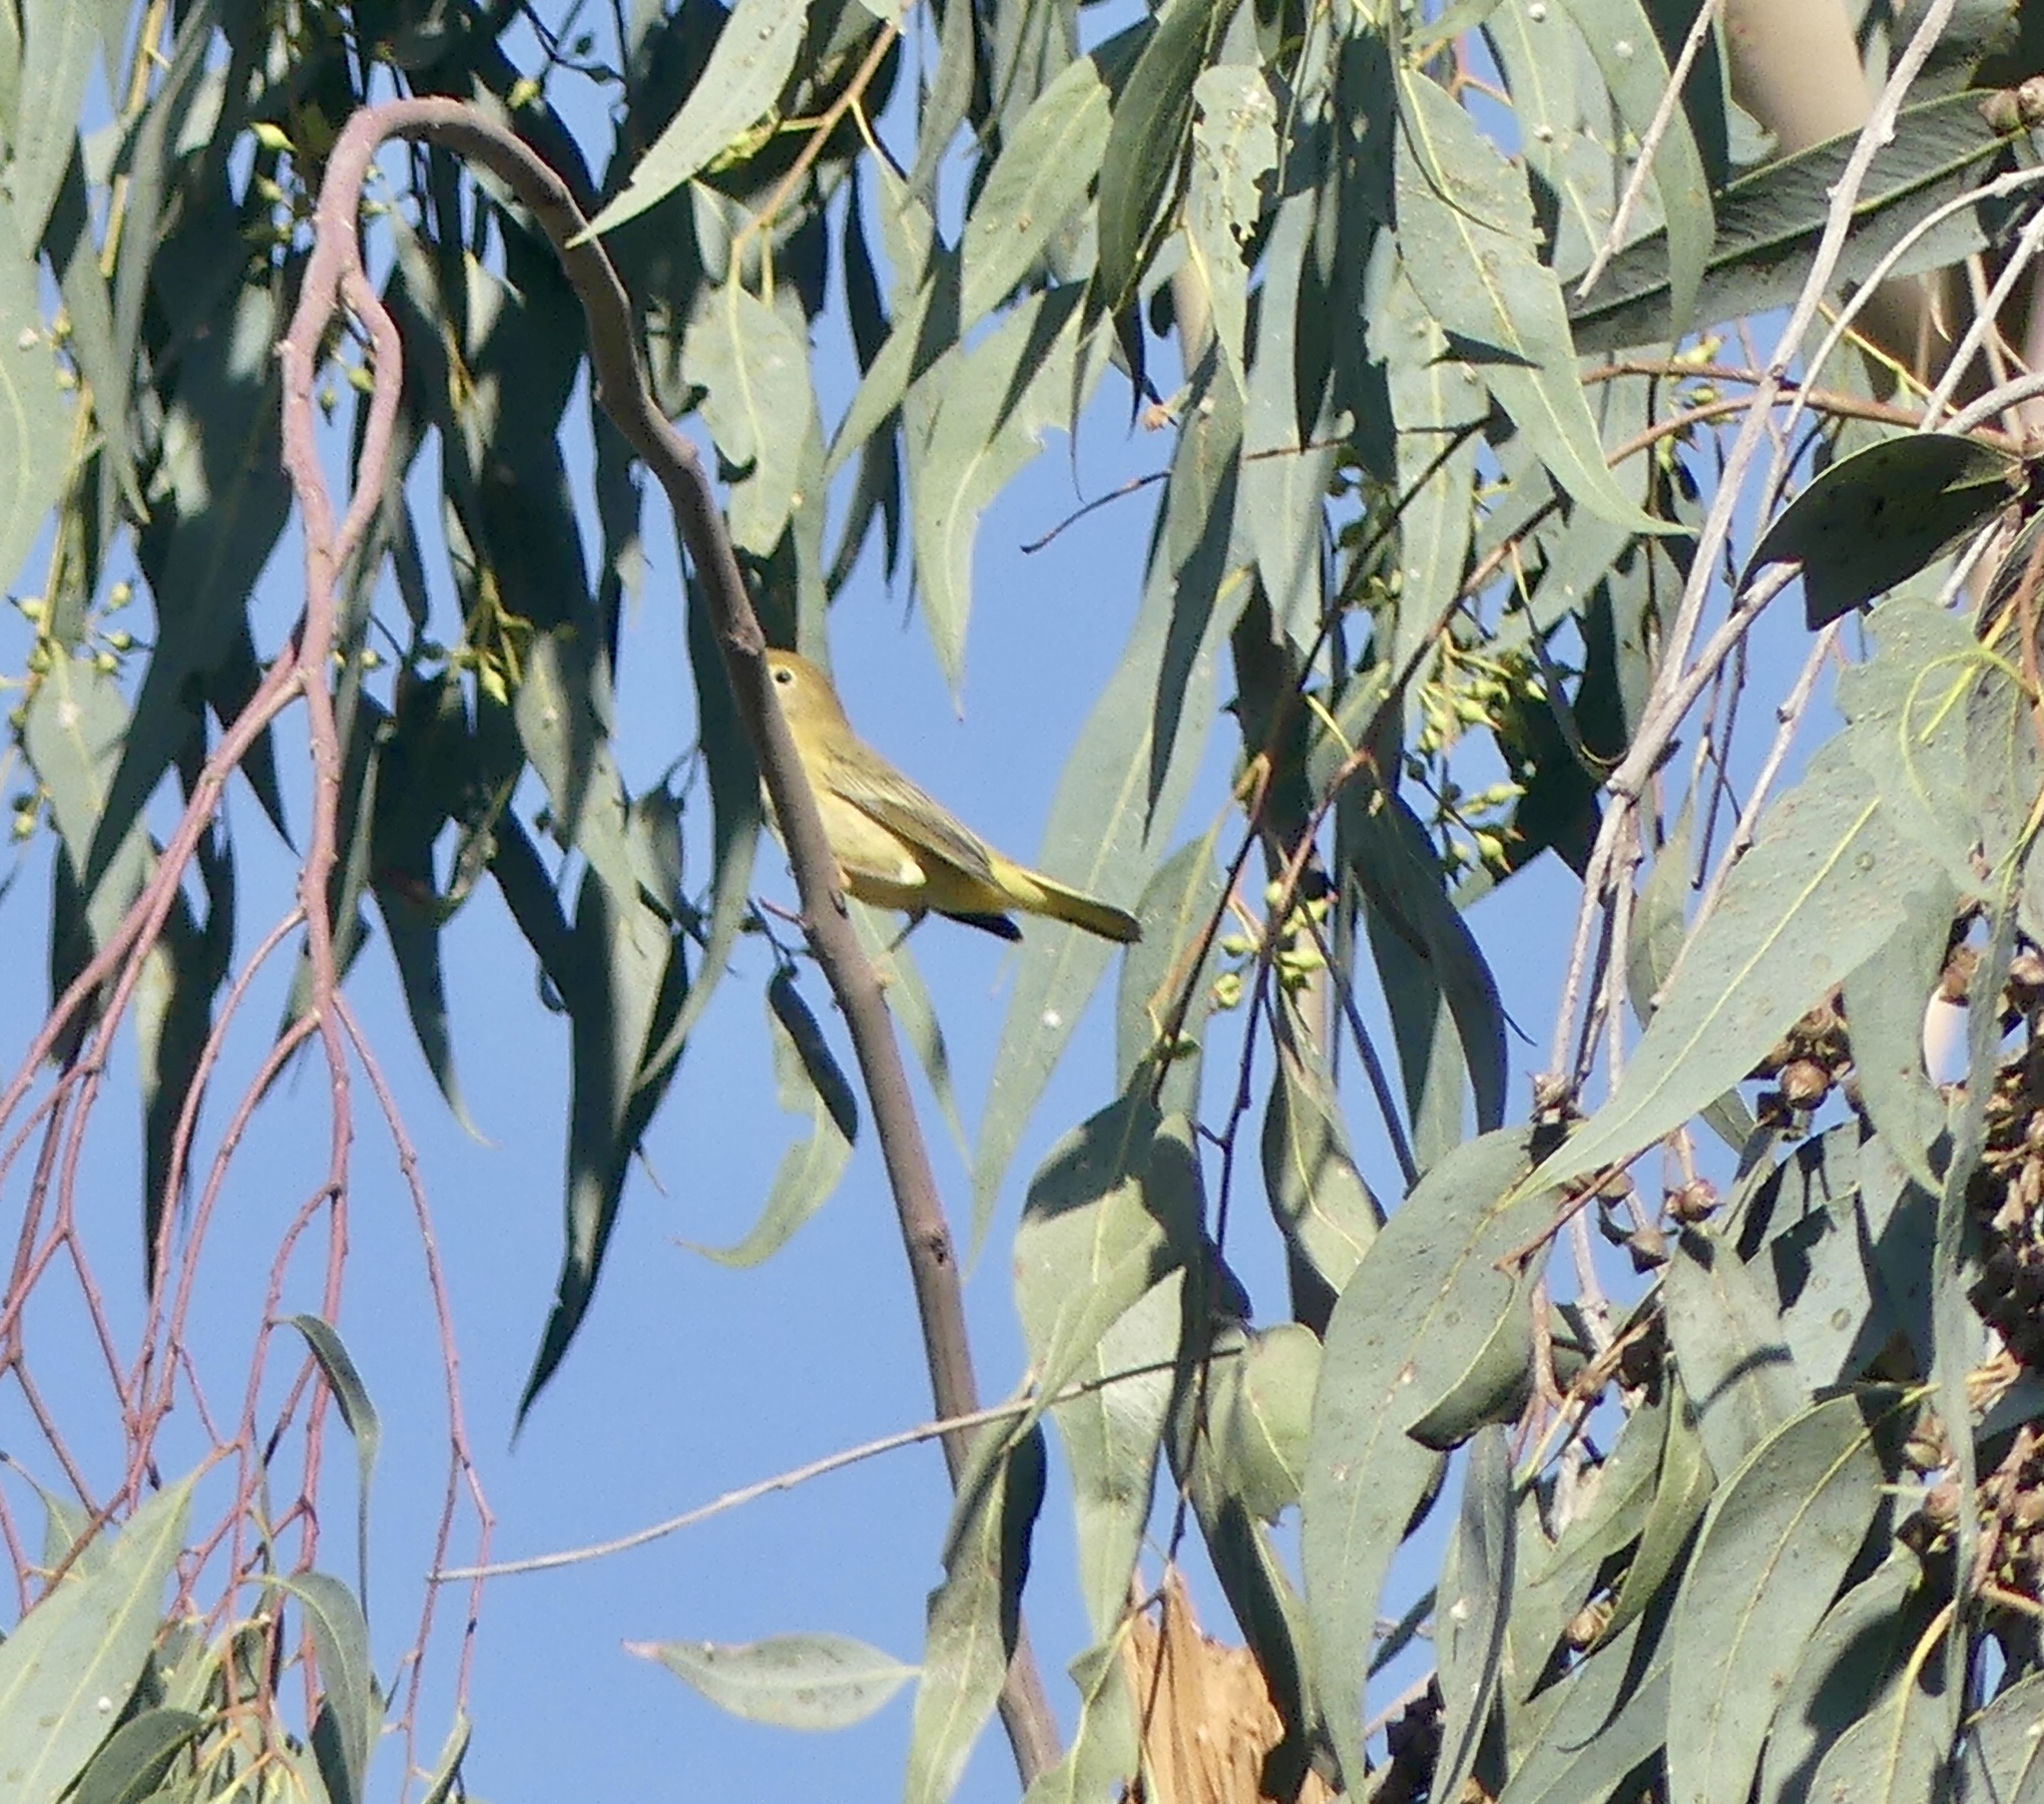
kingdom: Animalia
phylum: Chordata
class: Aves
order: Passeriformes
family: Parulidae
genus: Setophaga
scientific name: Setophaga petechia
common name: Yellow warbler
